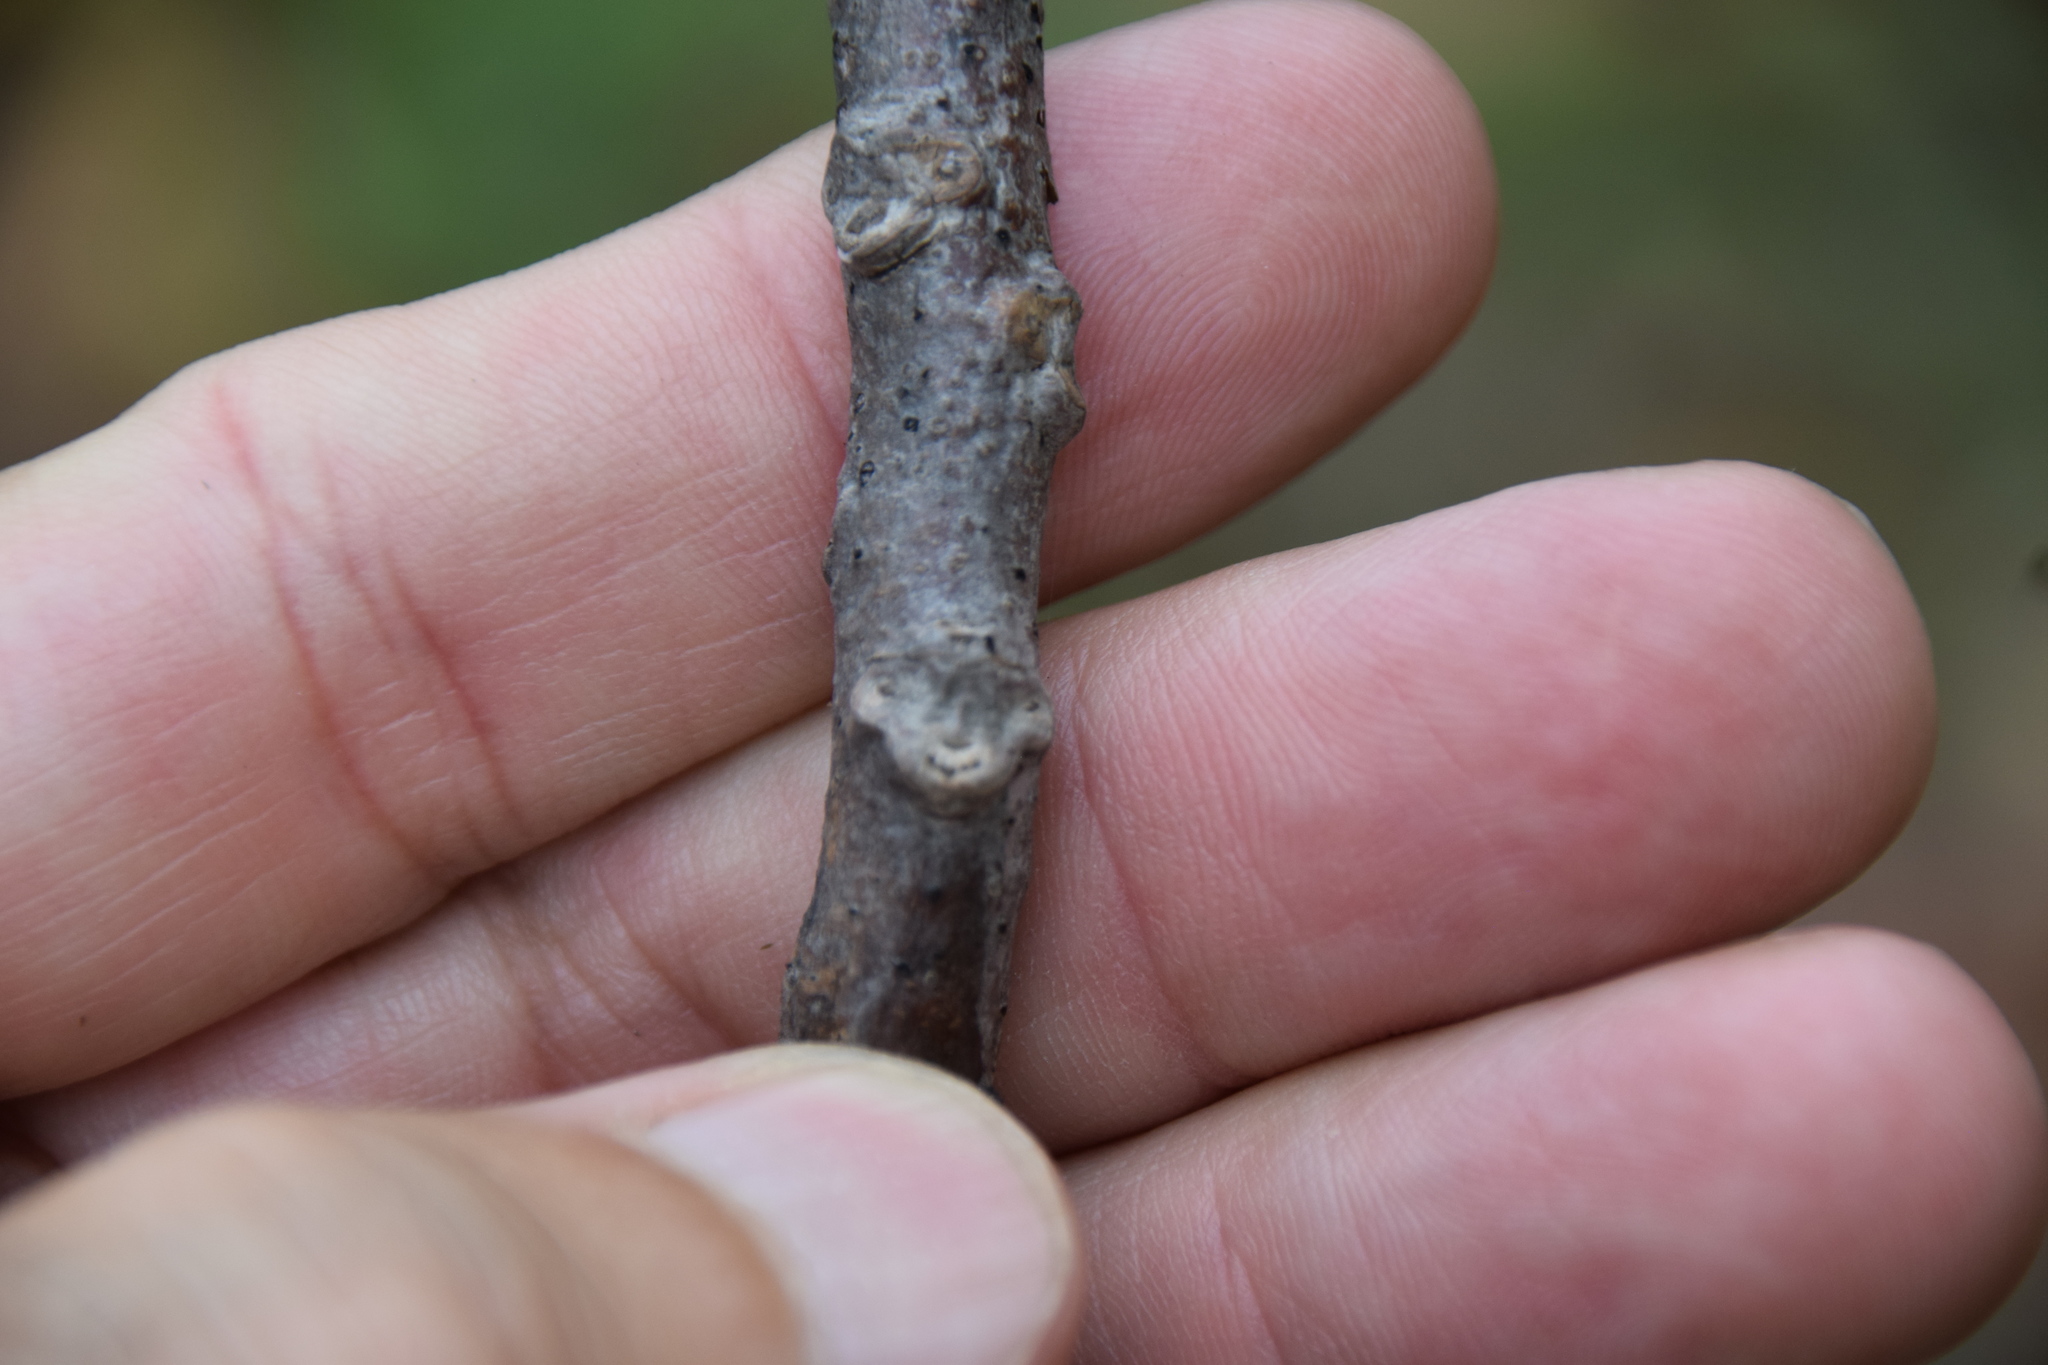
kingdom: Plantae
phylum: Tracheophyta
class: Magnoliopsida
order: Fagales
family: Juglandaceae
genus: Juglans
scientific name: Juglans cinerea
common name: Butternut
